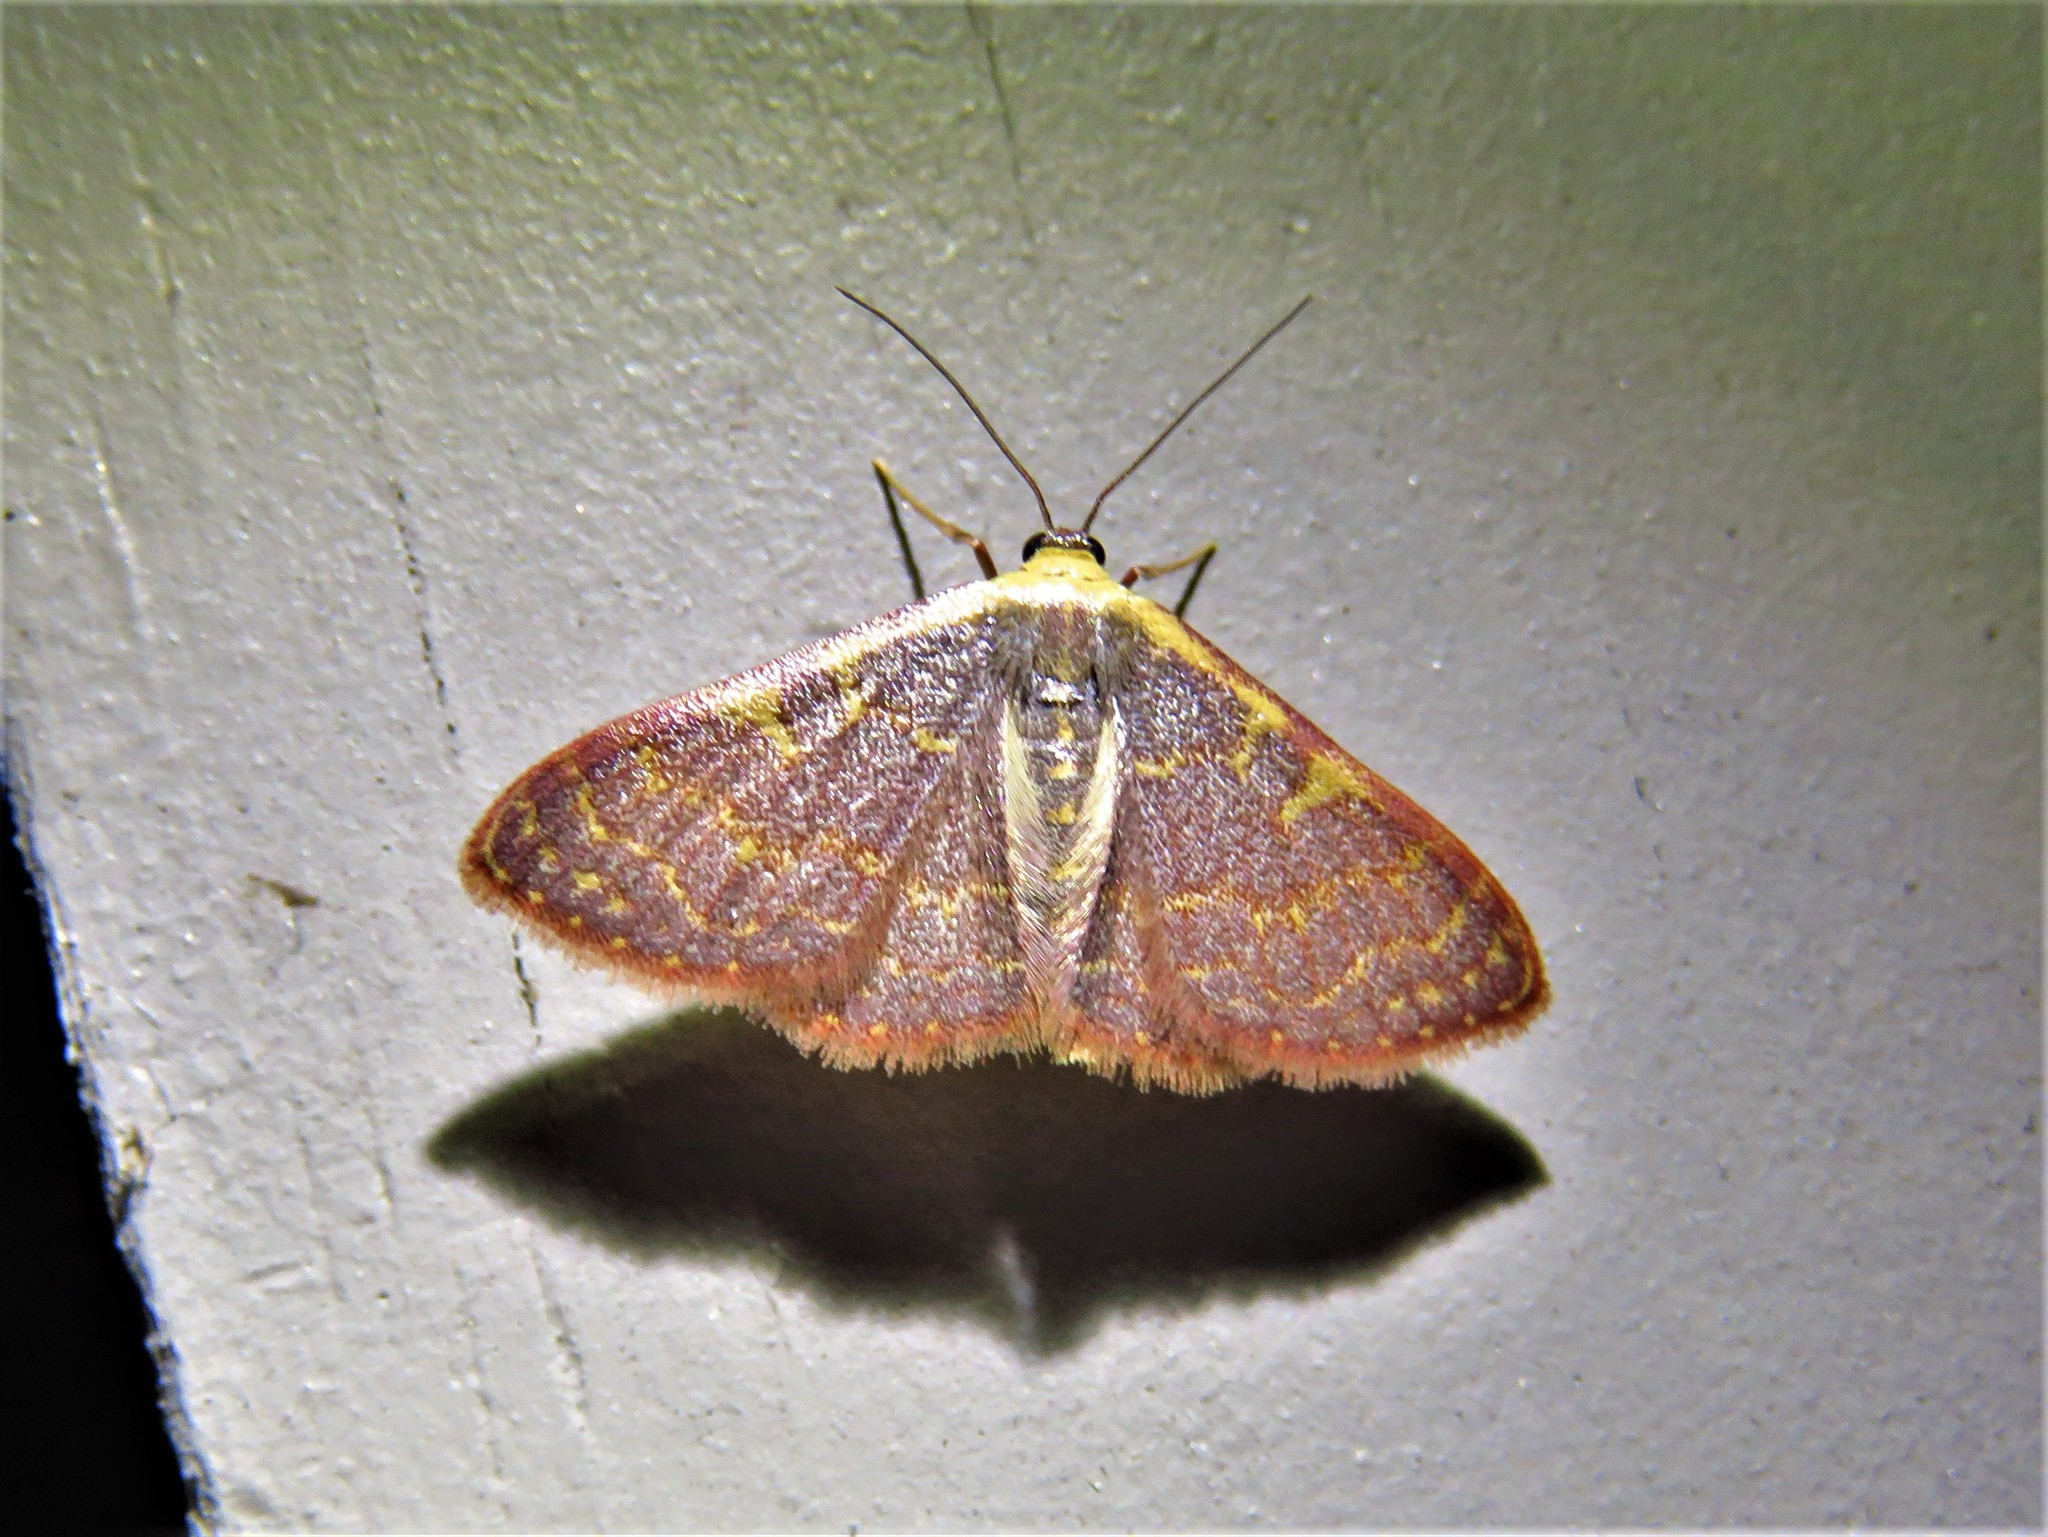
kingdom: Animalia
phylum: Arthropoda
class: Insecta
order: Lepidoptera
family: Geometridae
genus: Leptostales
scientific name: Leptostales pannaria
